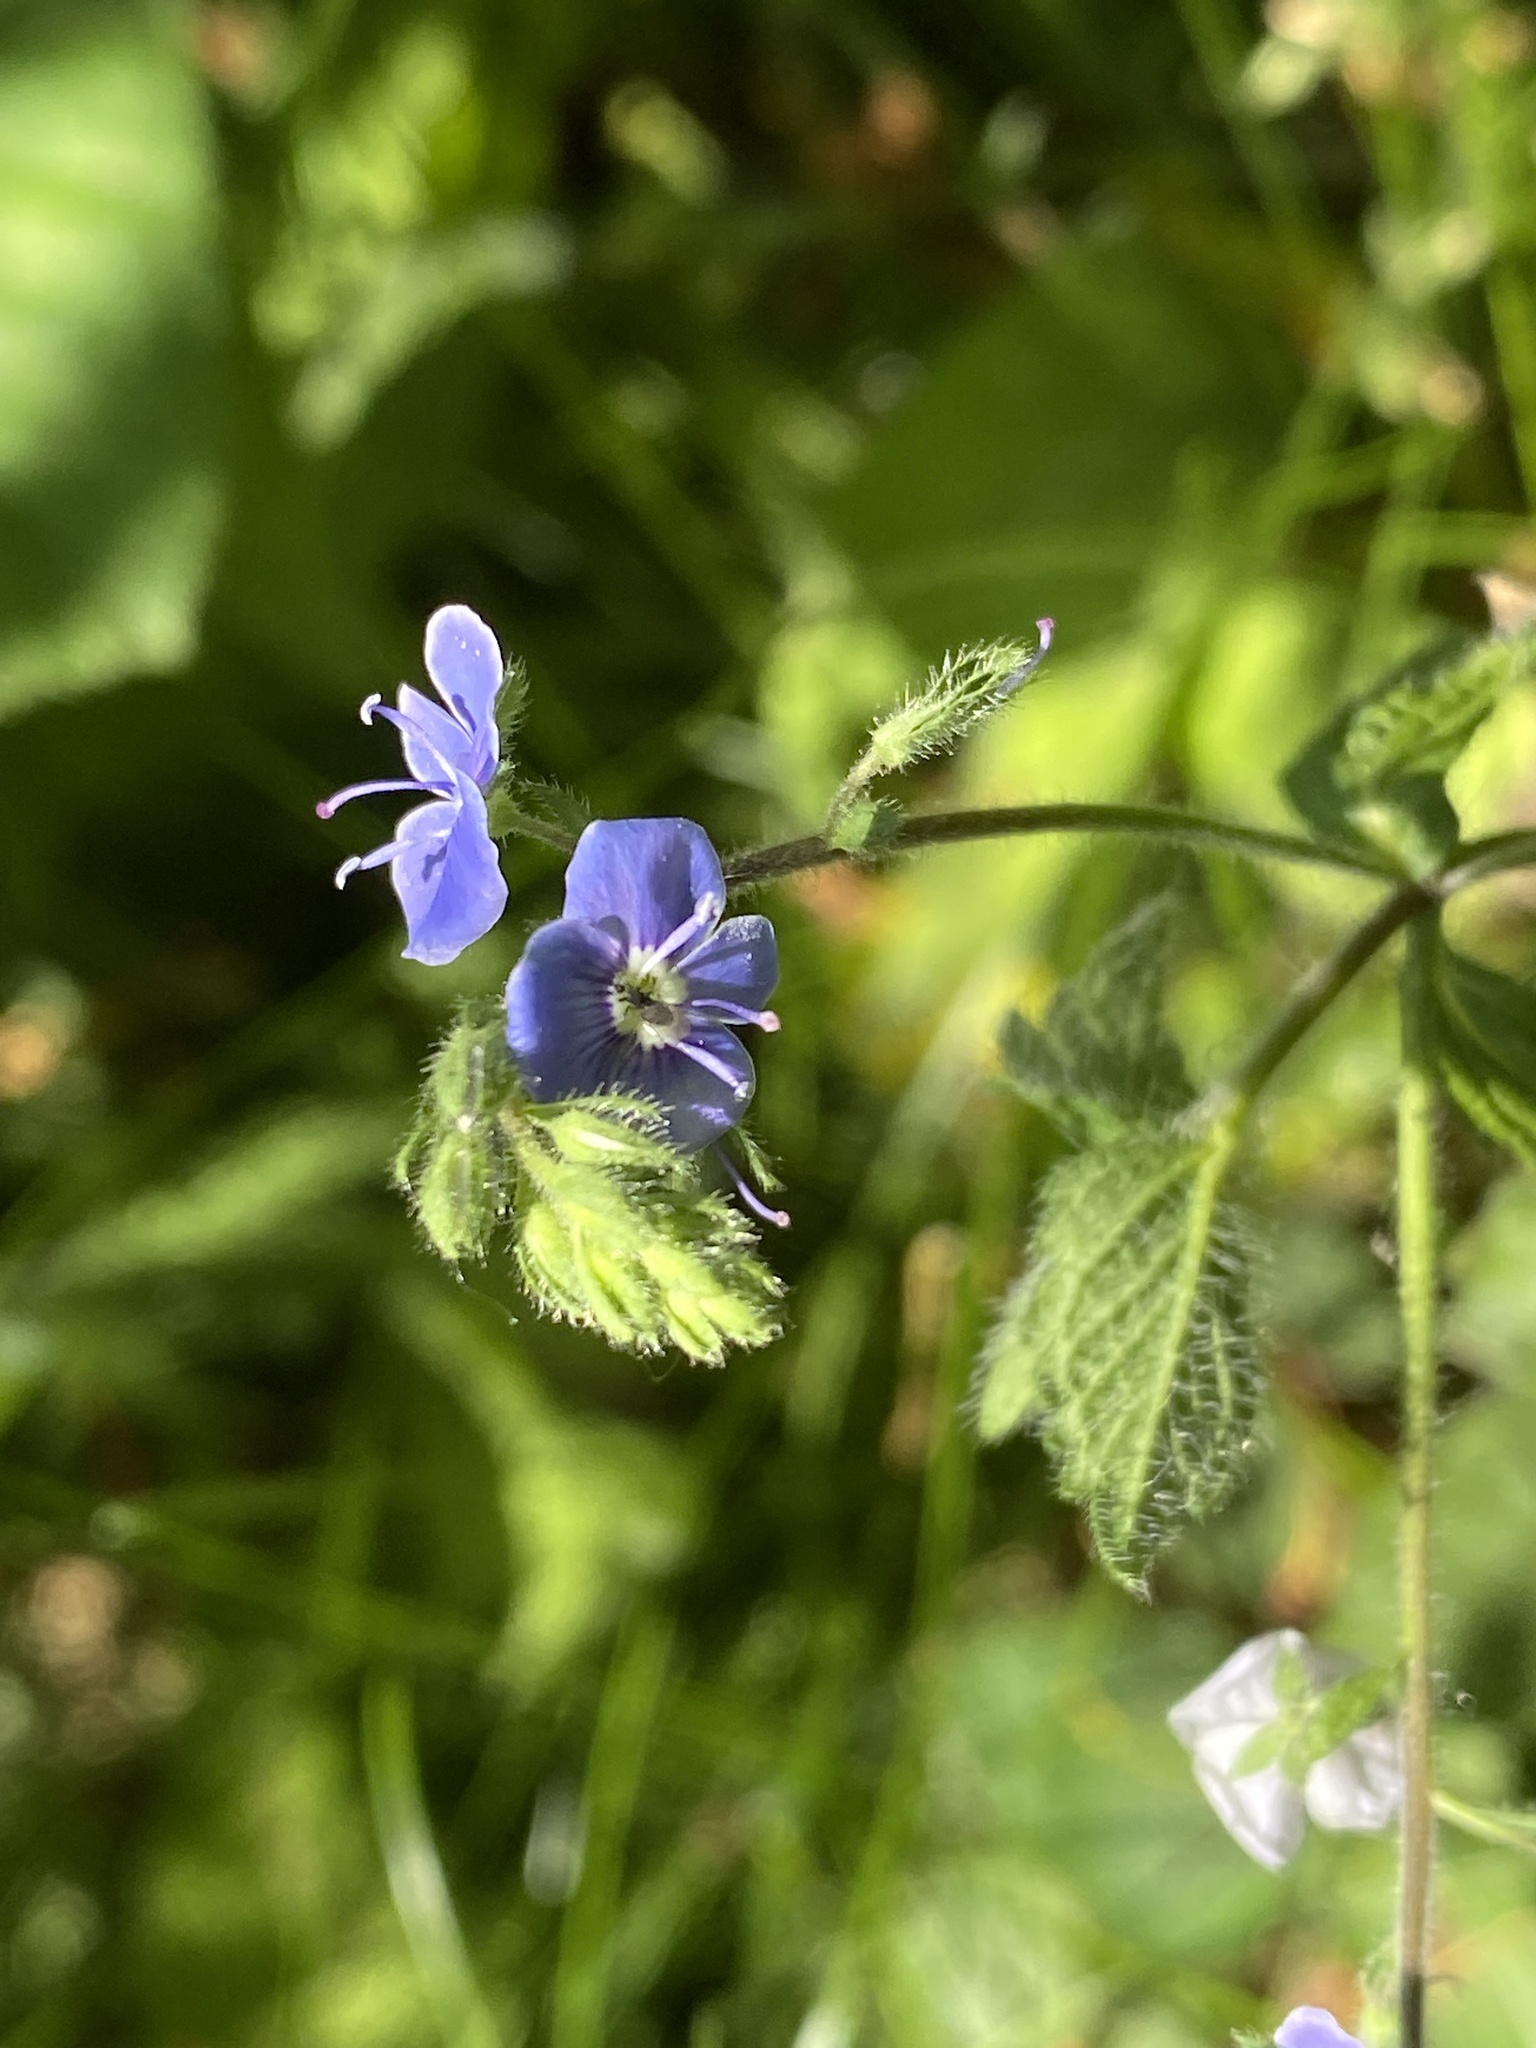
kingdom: Plantae
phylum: Tracheophyta
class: Magnoliopsida
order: Lamiales
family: Plantaginaceae
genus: Veronica
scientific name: Veronica chamaedrys
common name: Germander speedwell
